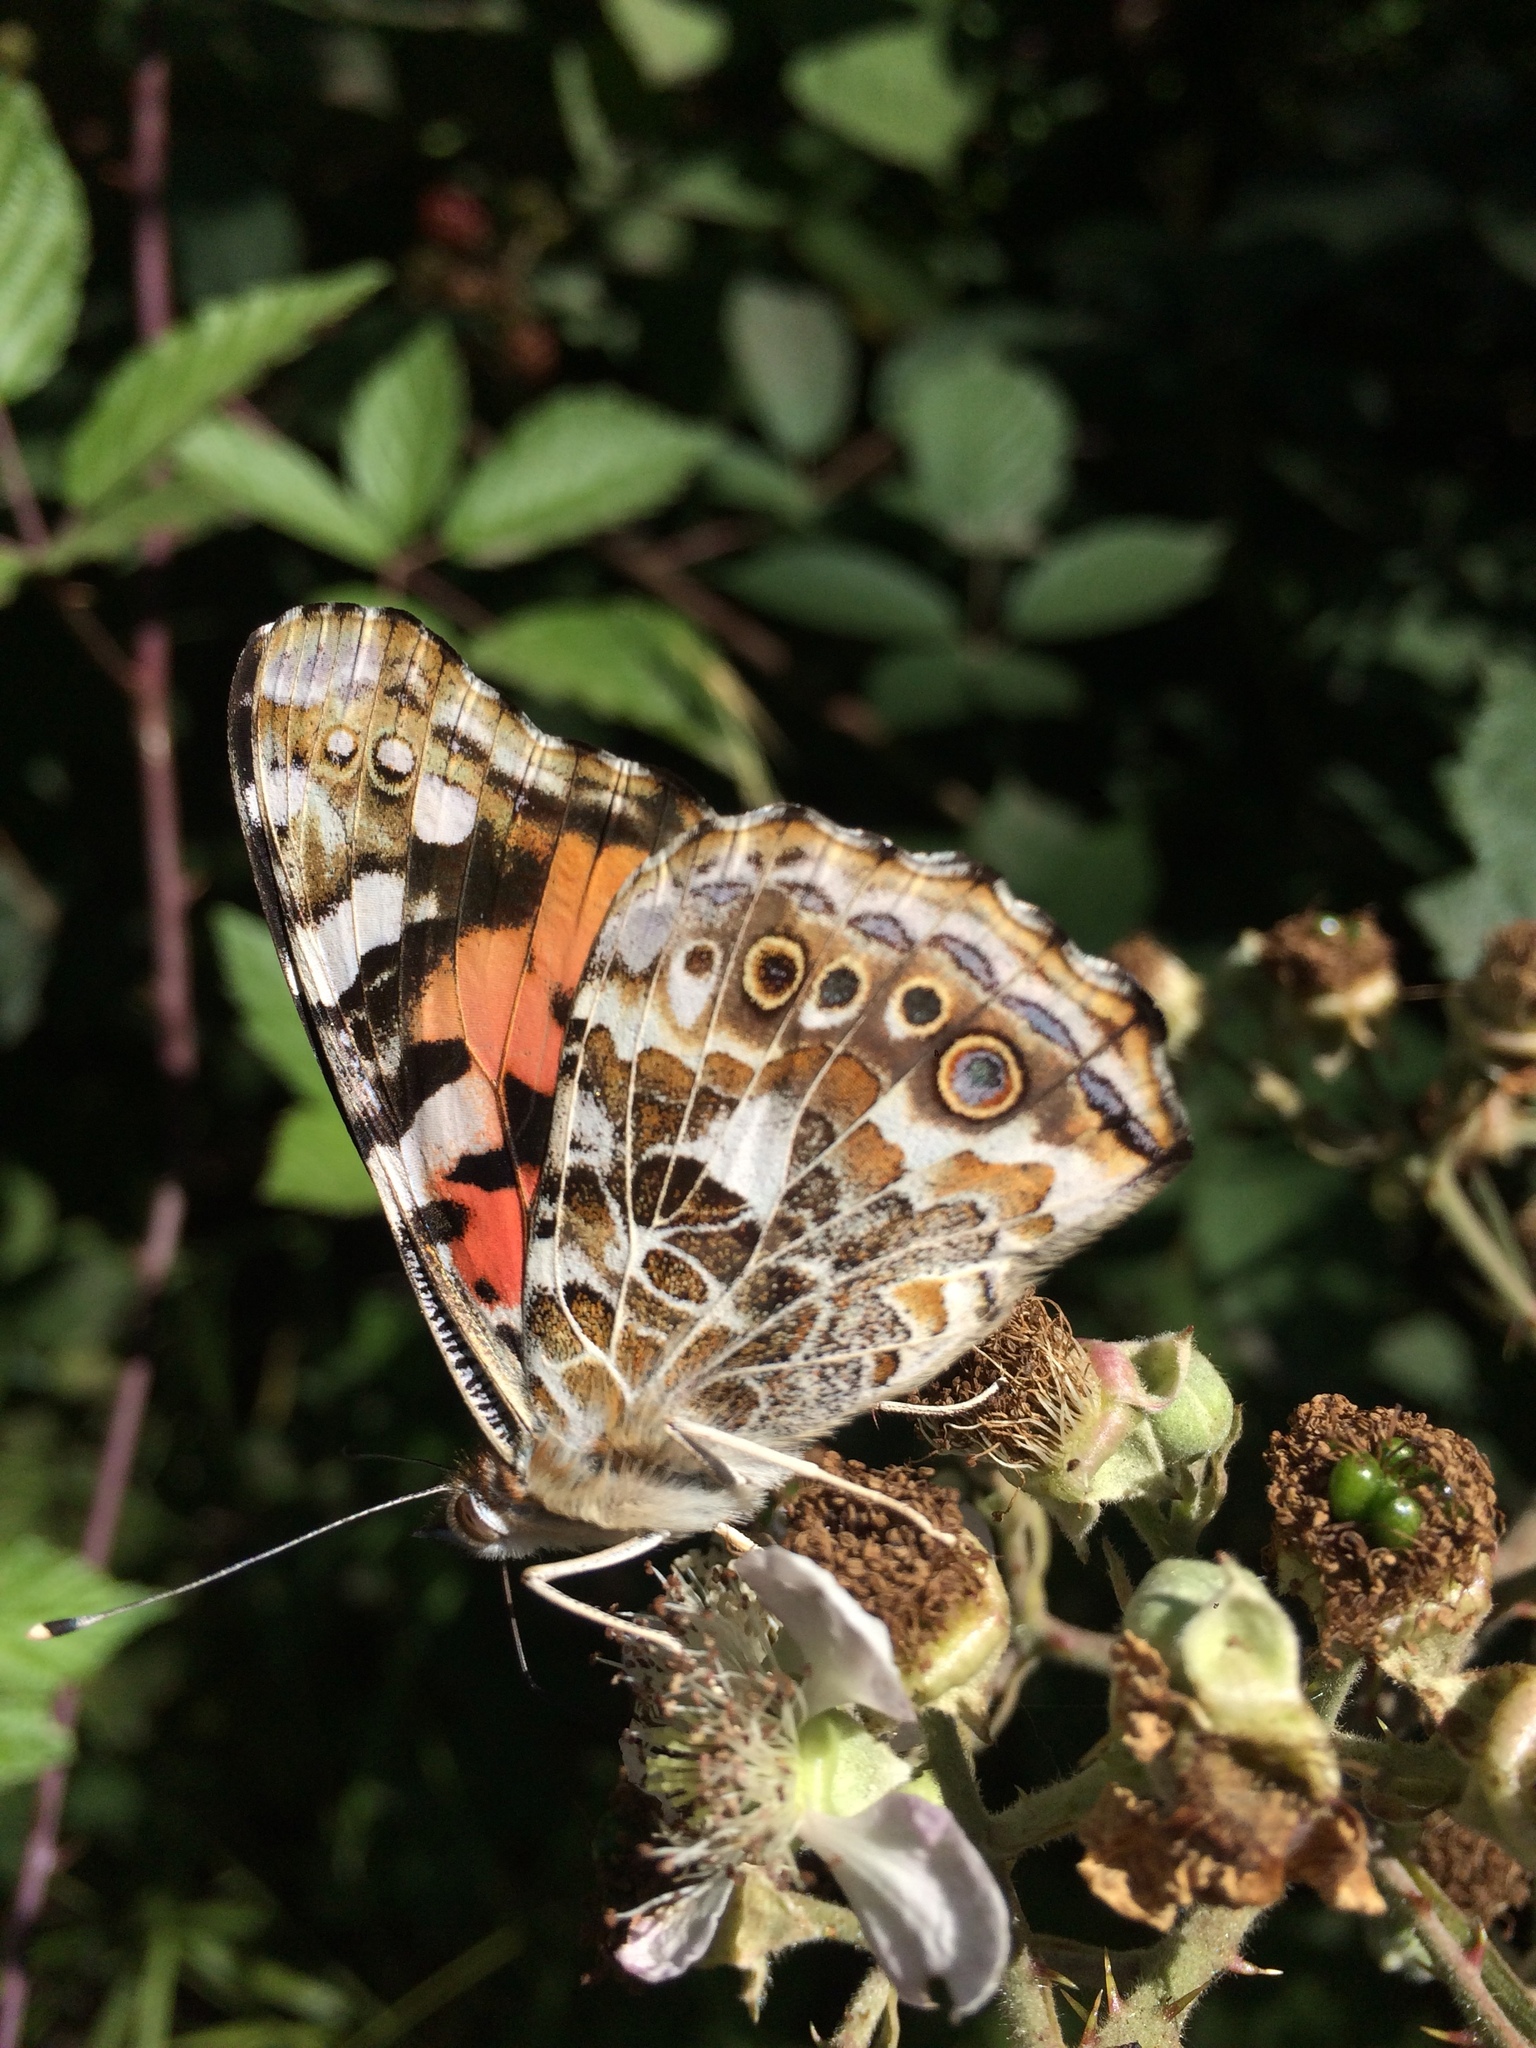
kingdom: Animalia
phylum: Arthropoda
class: Insecta
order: Lepidoptera
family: Nymphalidae
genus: Vanessa
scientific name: Vanessa cardui
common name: Painted lady
